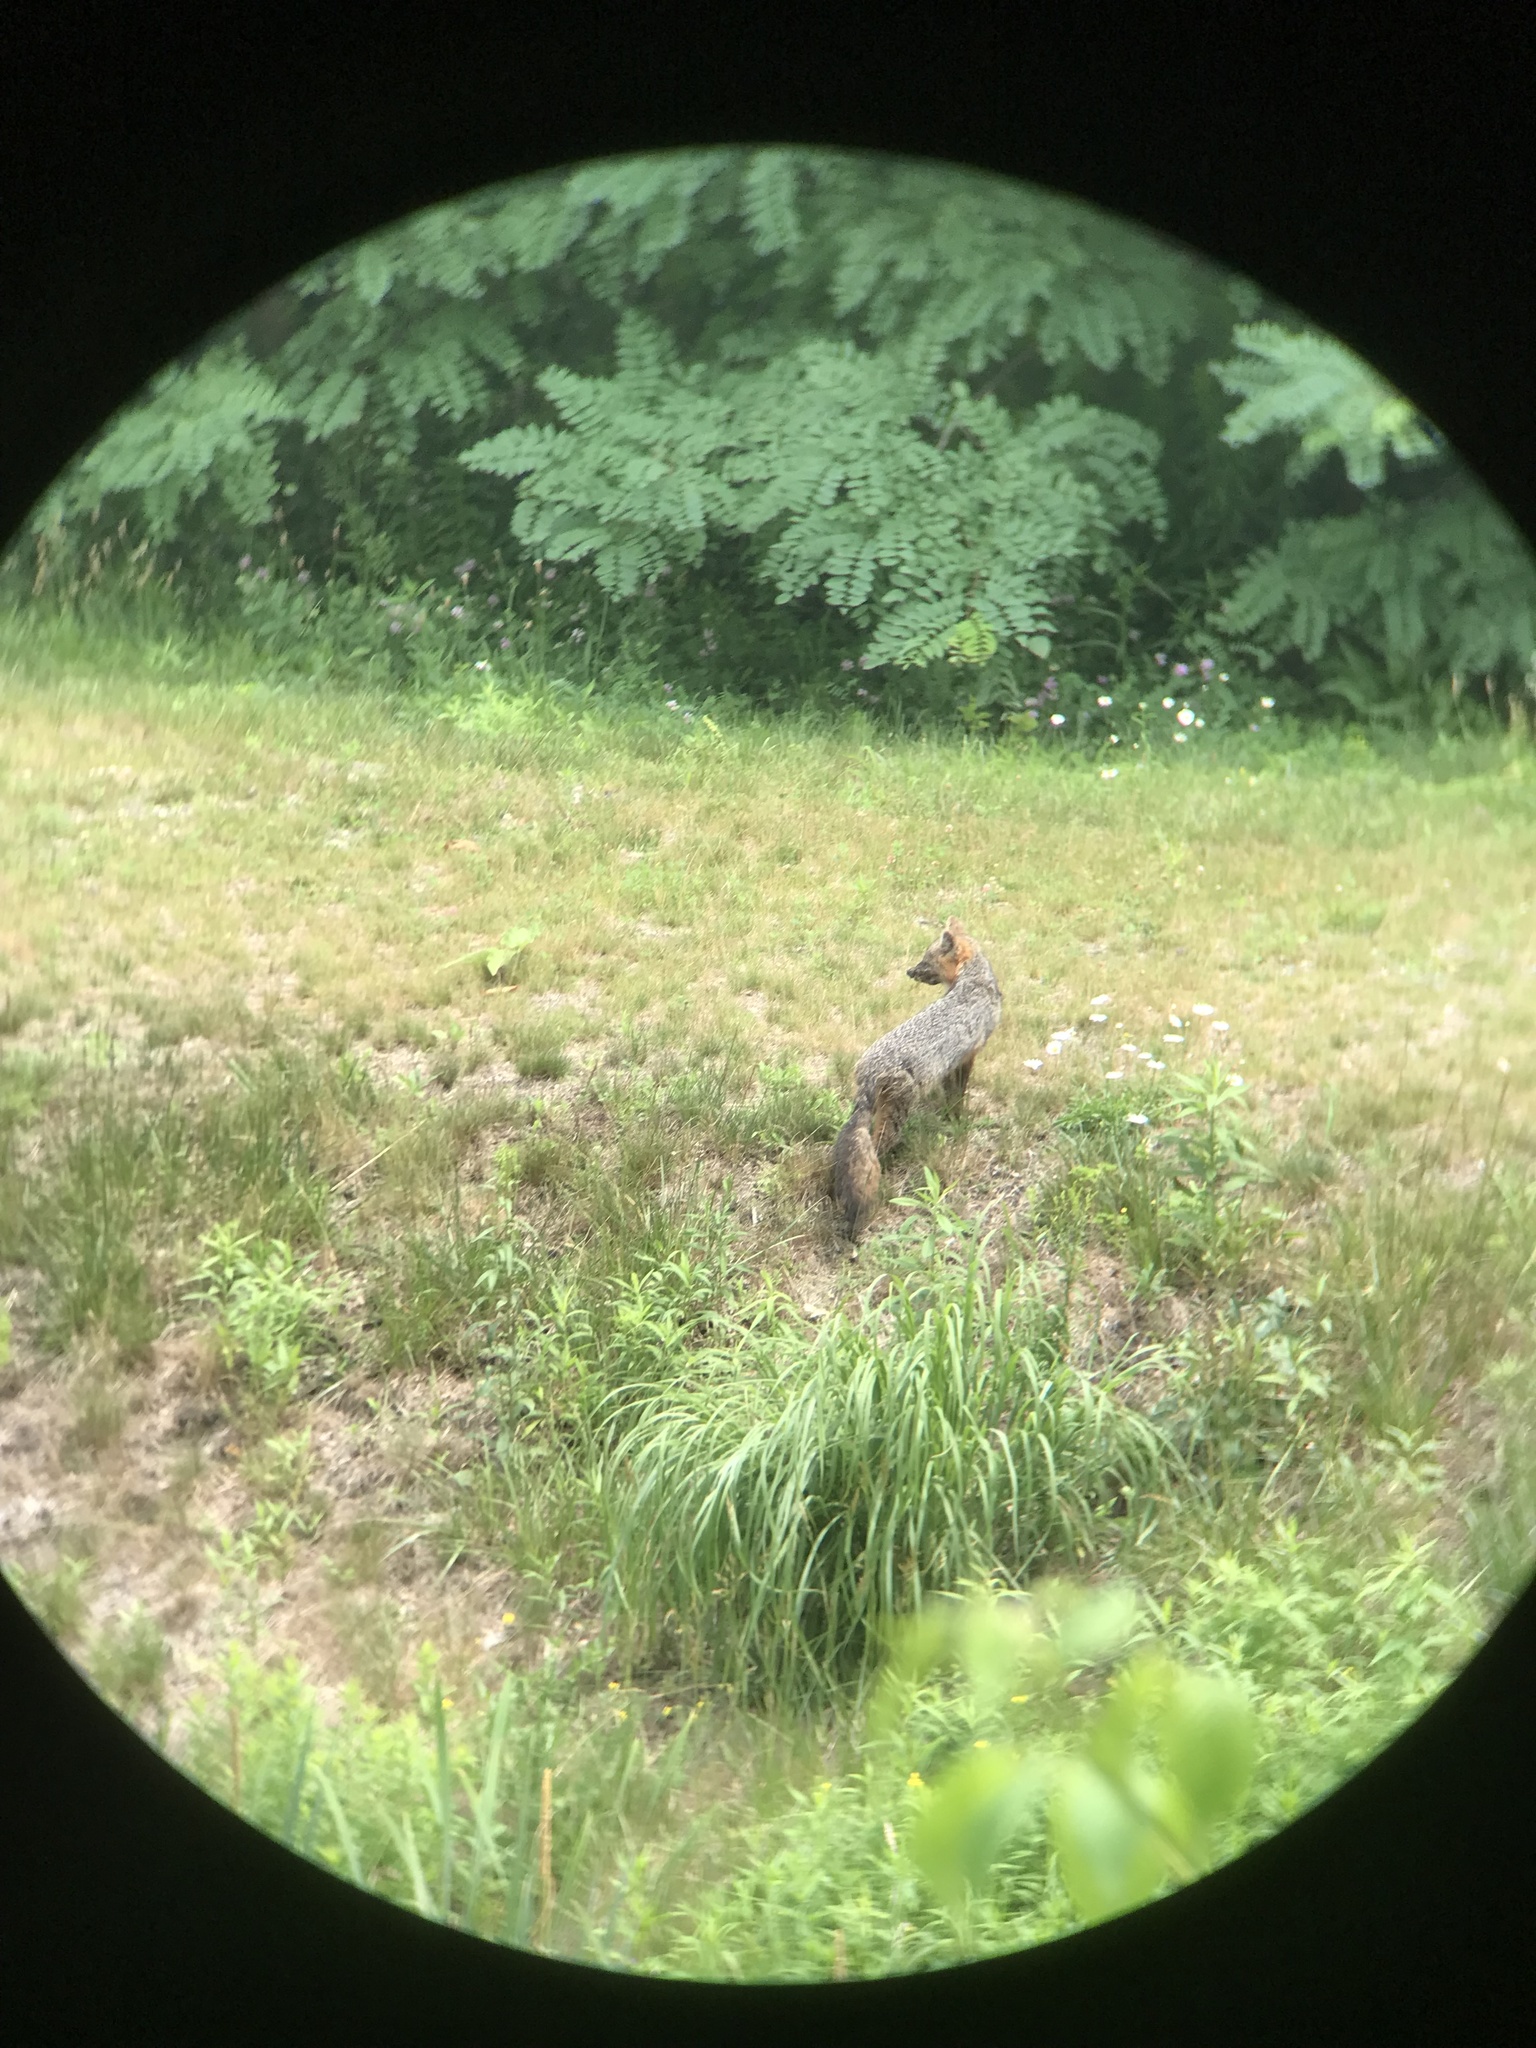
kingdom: Animalia
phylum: Chordata
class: Mammalia
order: Carnivora
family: Canidae
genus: Urocyon
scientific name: Urocyon cinereoargenteus
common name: Gray fox
